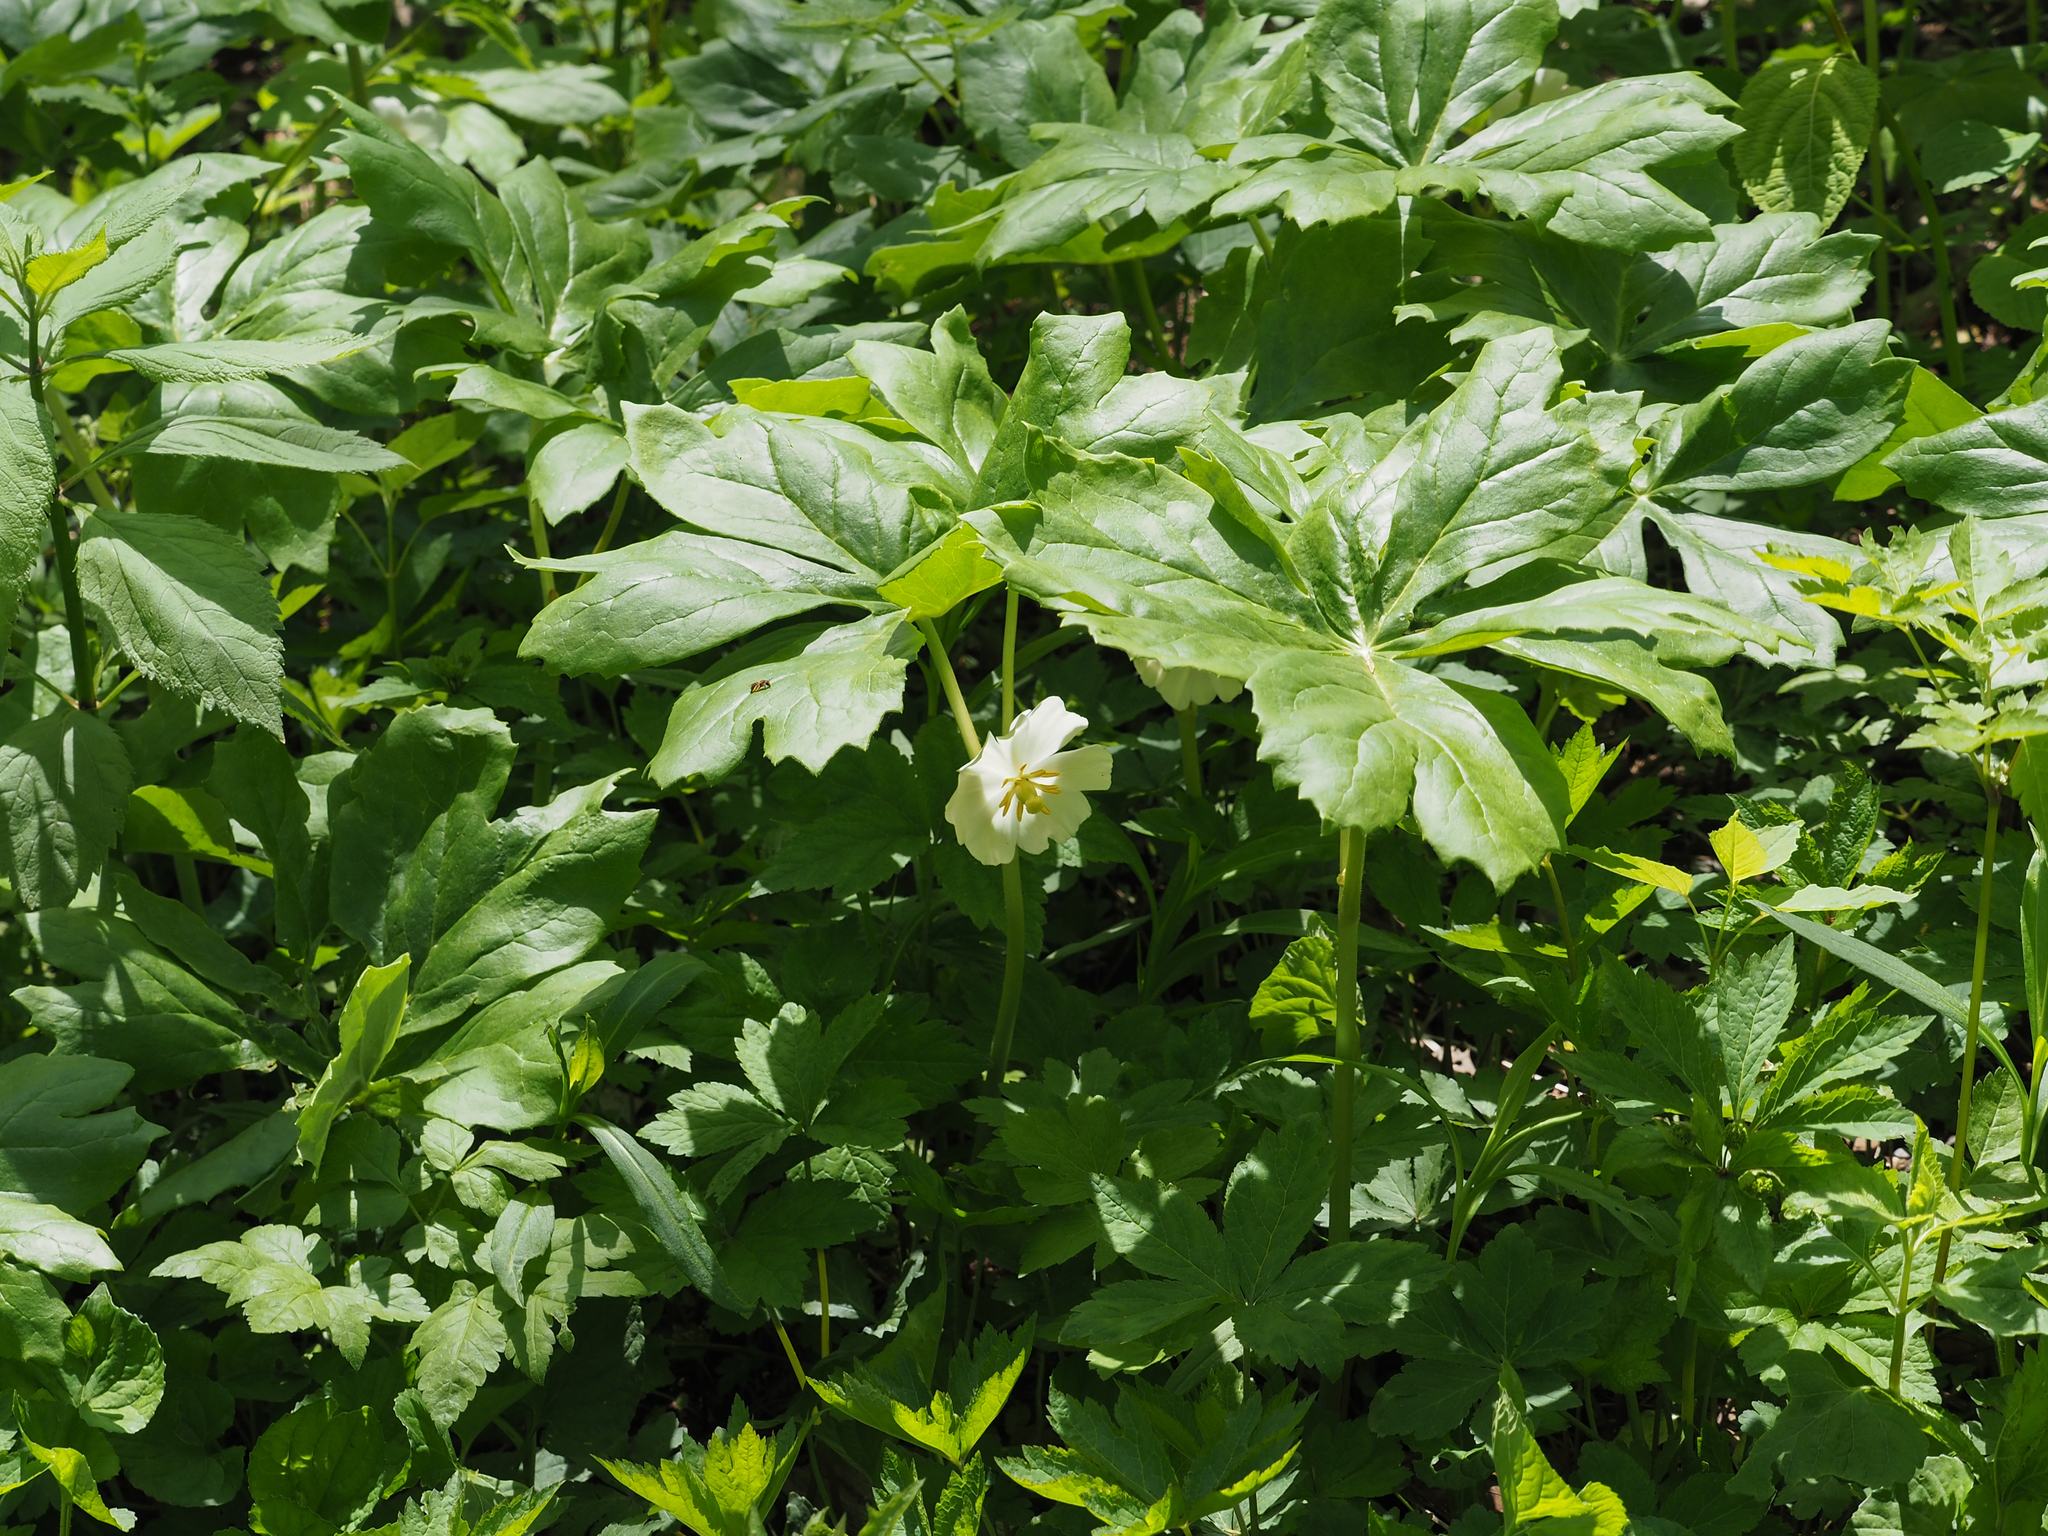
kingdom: Plantae
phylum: Tracheophyta
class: Magnoliopsida
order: Ranunculales
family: Berberidaceae
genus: Podophyllum
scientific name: Podophyllum peltatum
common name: Wild mandrake
